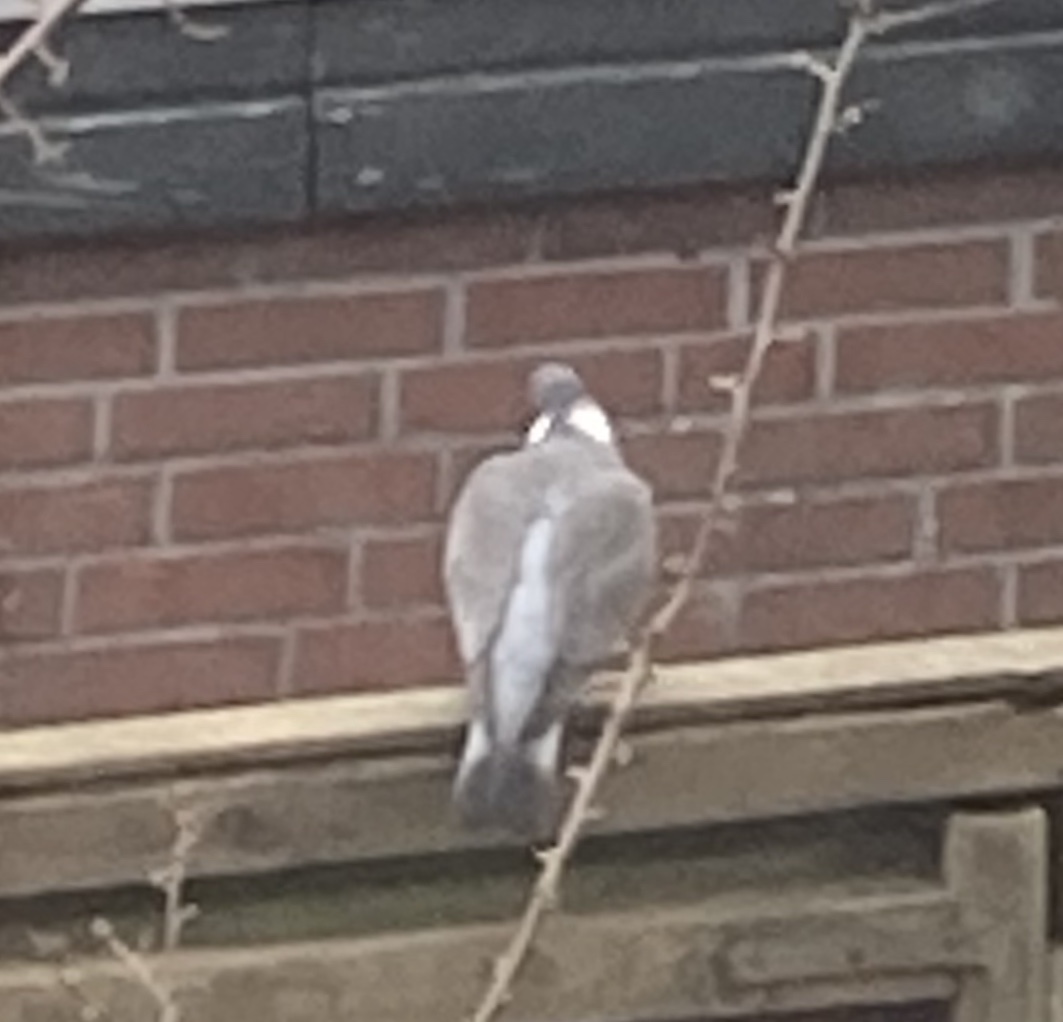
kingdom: Animalia
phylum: Chordata
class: Aves
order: Columbiformes
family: Columbidae
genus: Columba
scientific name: Columba palumbus
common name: Common wood pigeon
